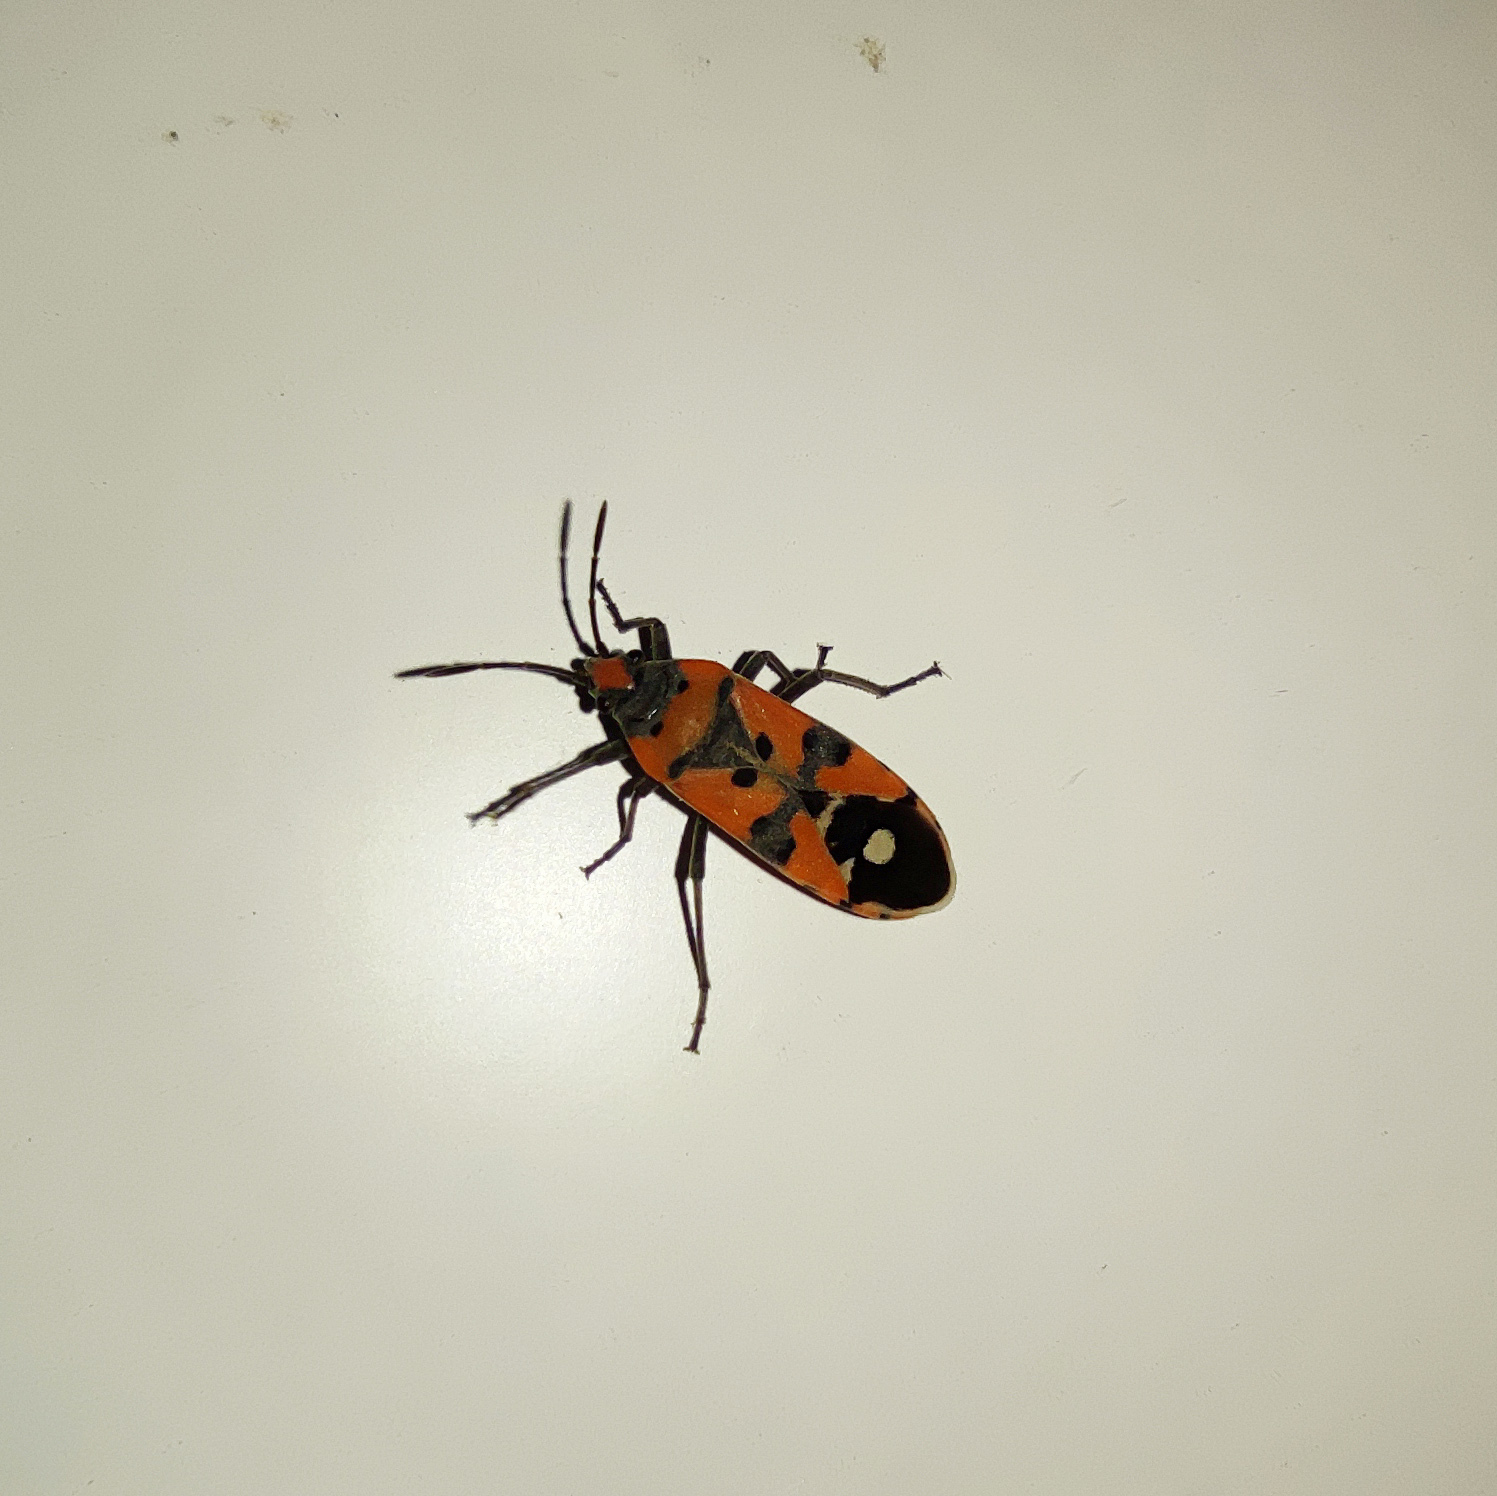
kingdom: Animalia
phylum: Arthropoda
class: Insecta
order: Hemiptera
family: Lygaeidae
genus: Lygaeus
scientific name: Lygaeus simulans
